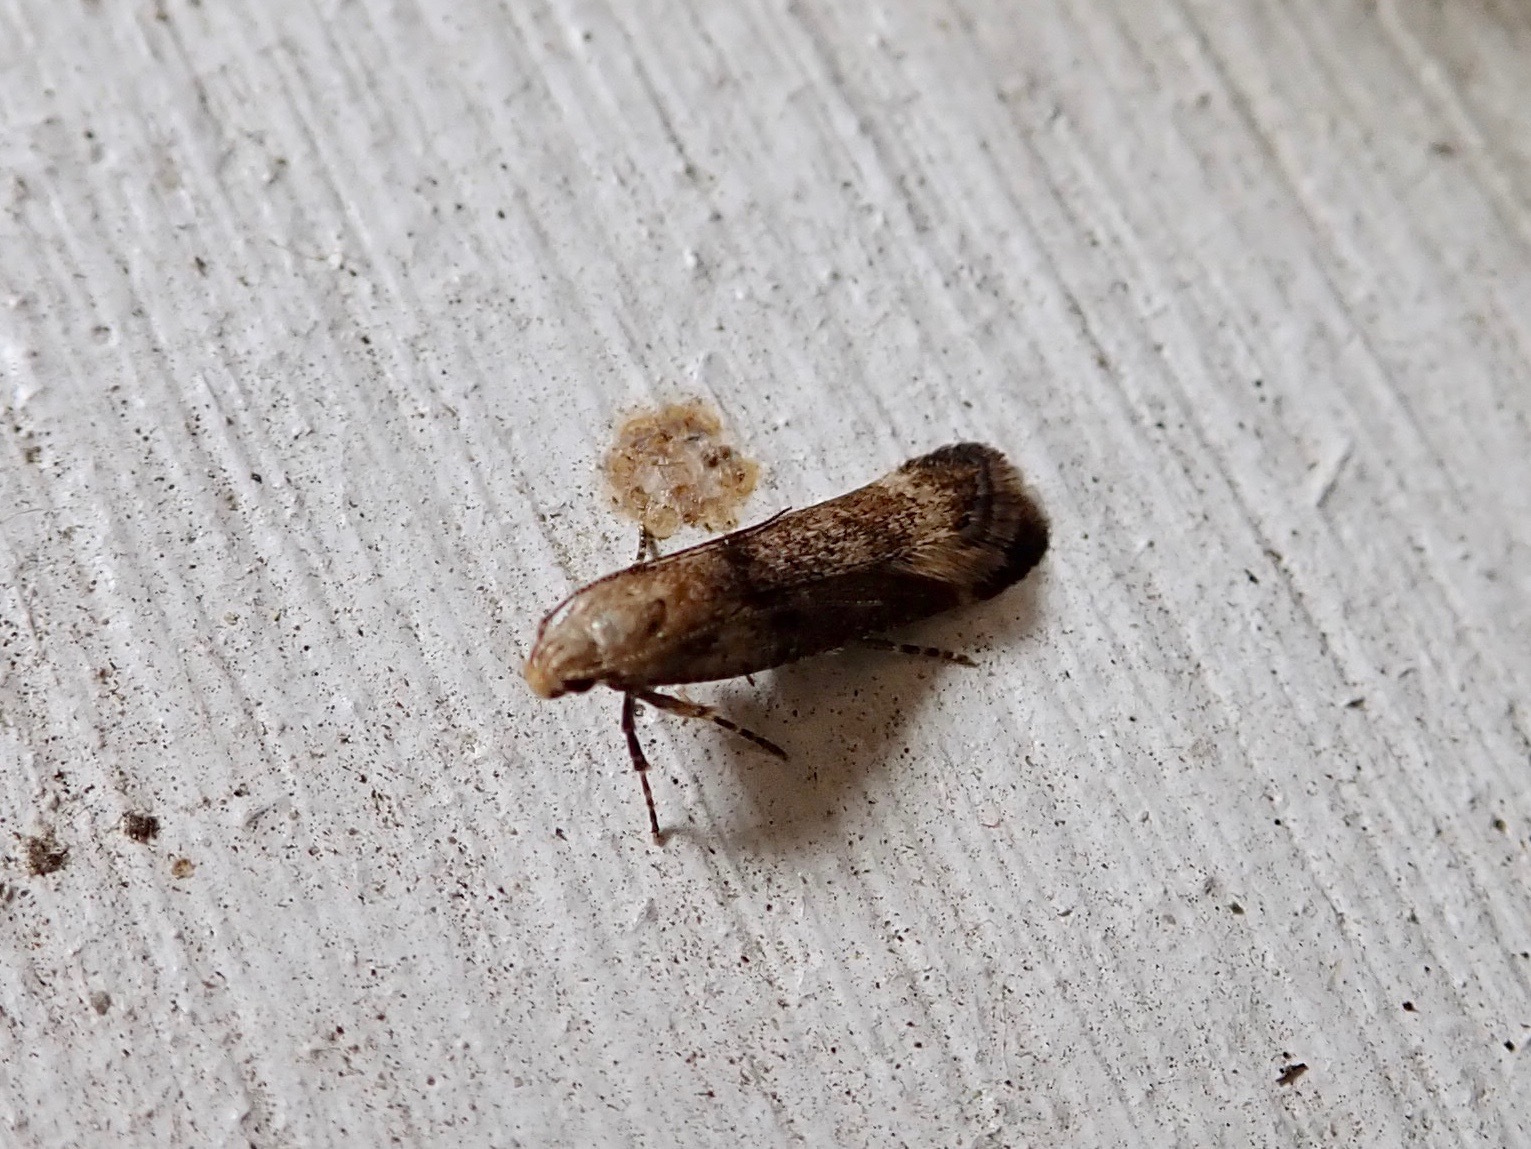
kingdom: Animalia
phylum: Arthropoda
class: Insecta
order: Lepidoptera
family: Gelechiidae
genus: Anisoplaca
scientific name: Anisoplaca acrodactyla
